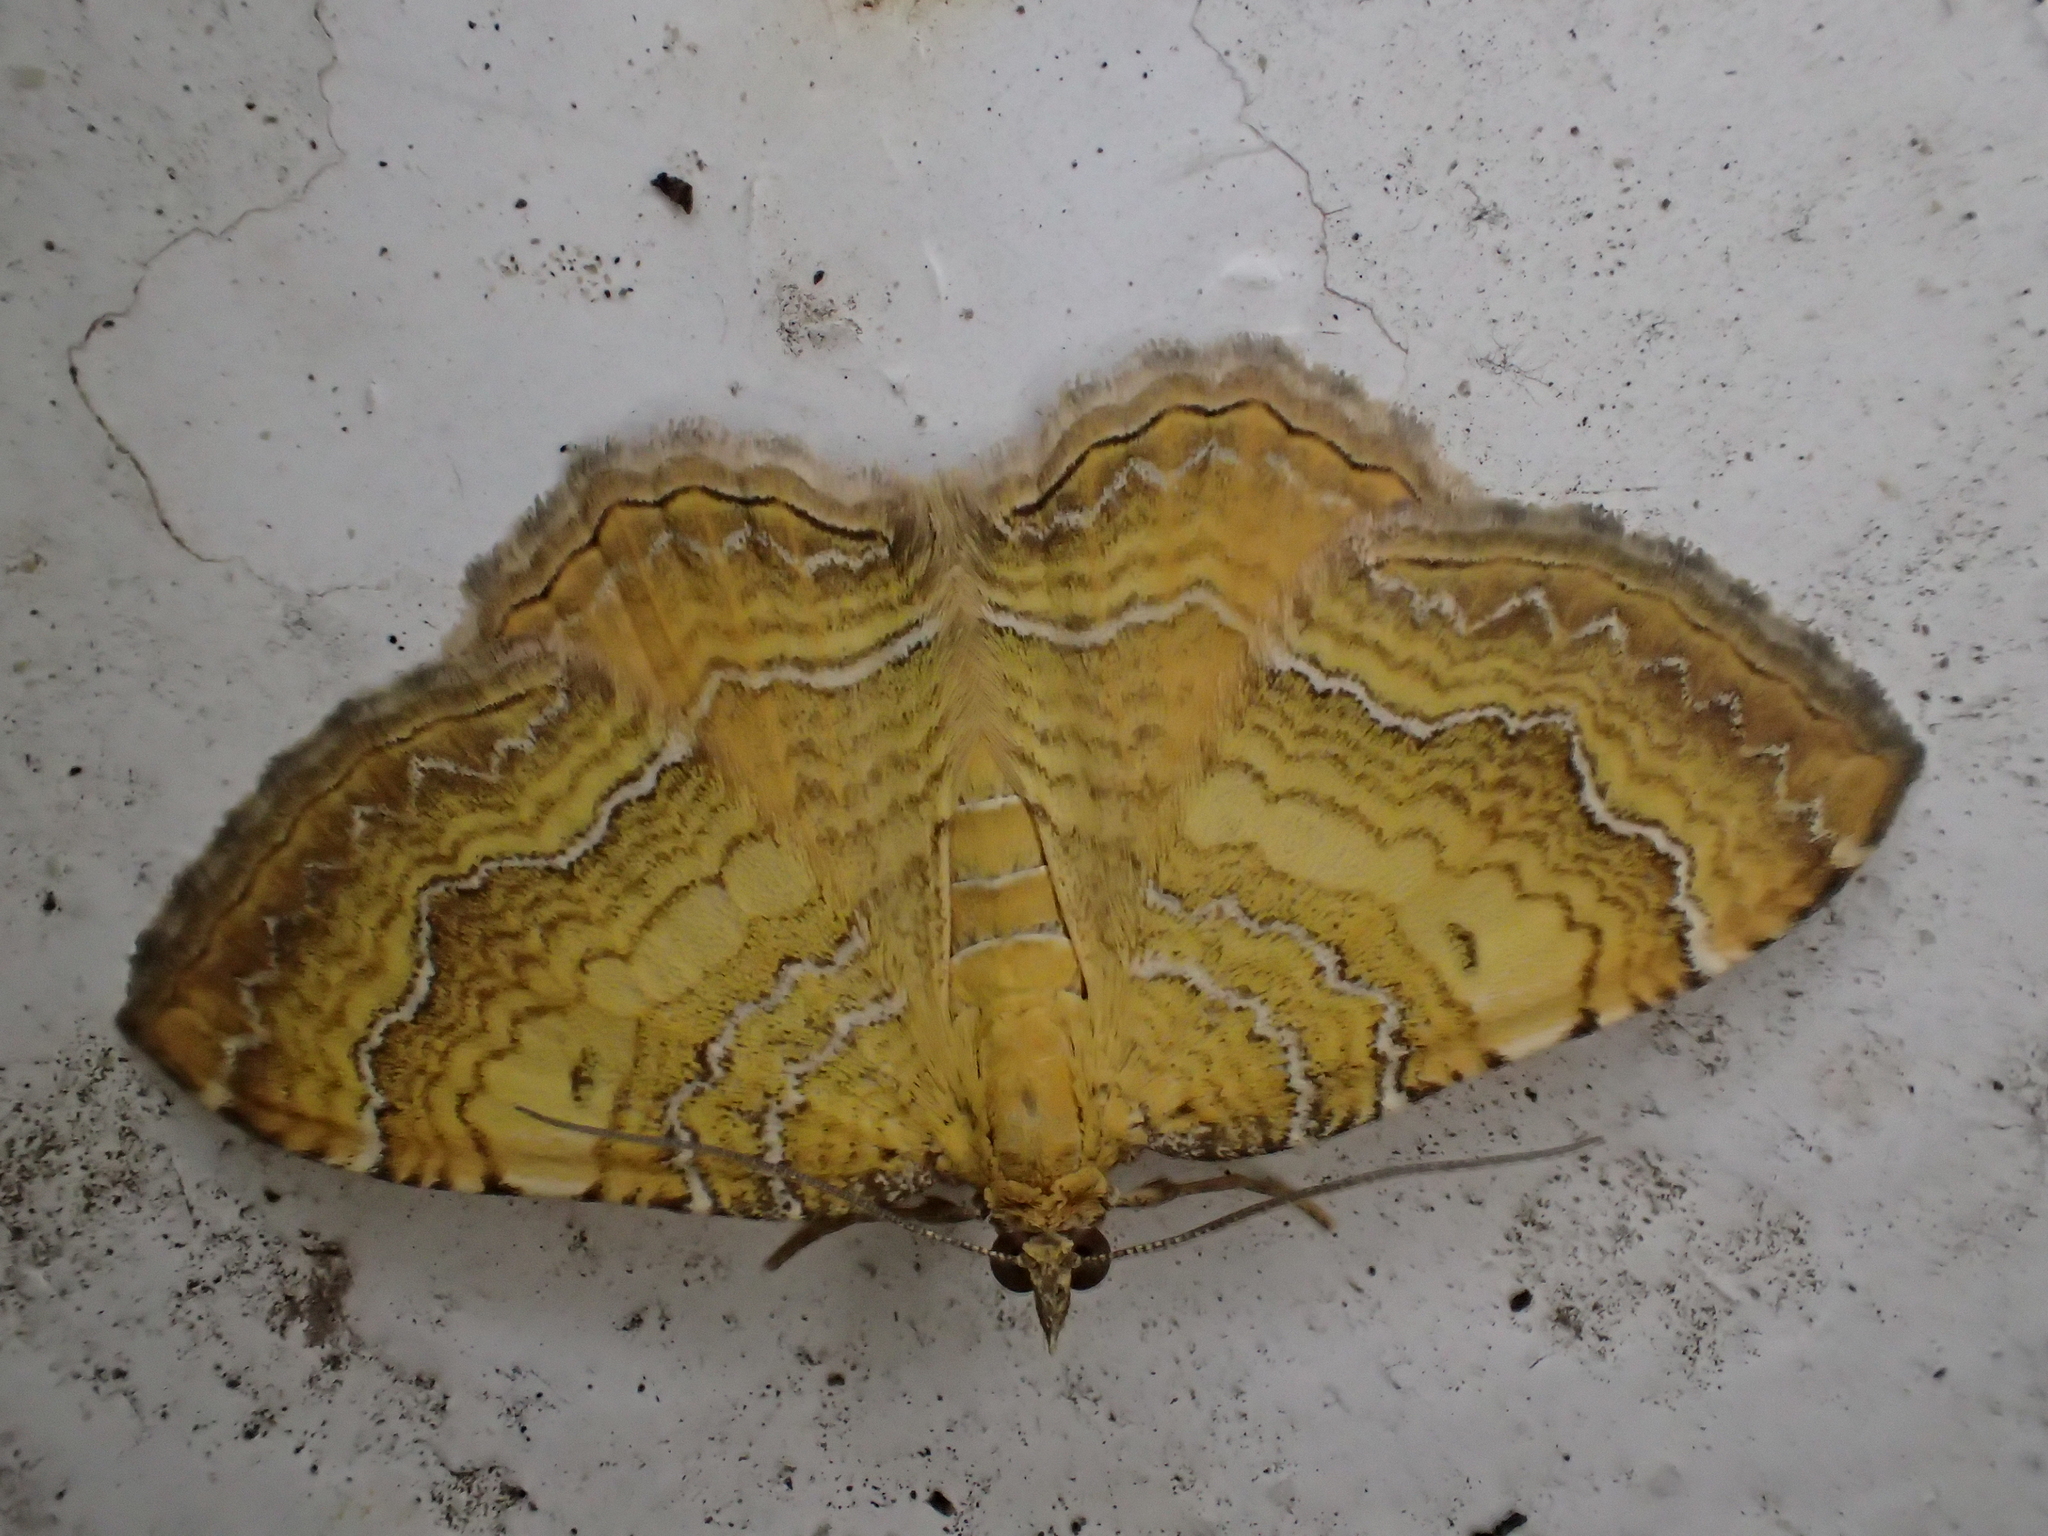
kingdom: Animalia
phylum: Arthropoda
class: Insecta
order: Lepidoptera
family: Geometridae
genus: Camptogramma
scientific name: Camptogramma bilineata
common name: Yellow shell
